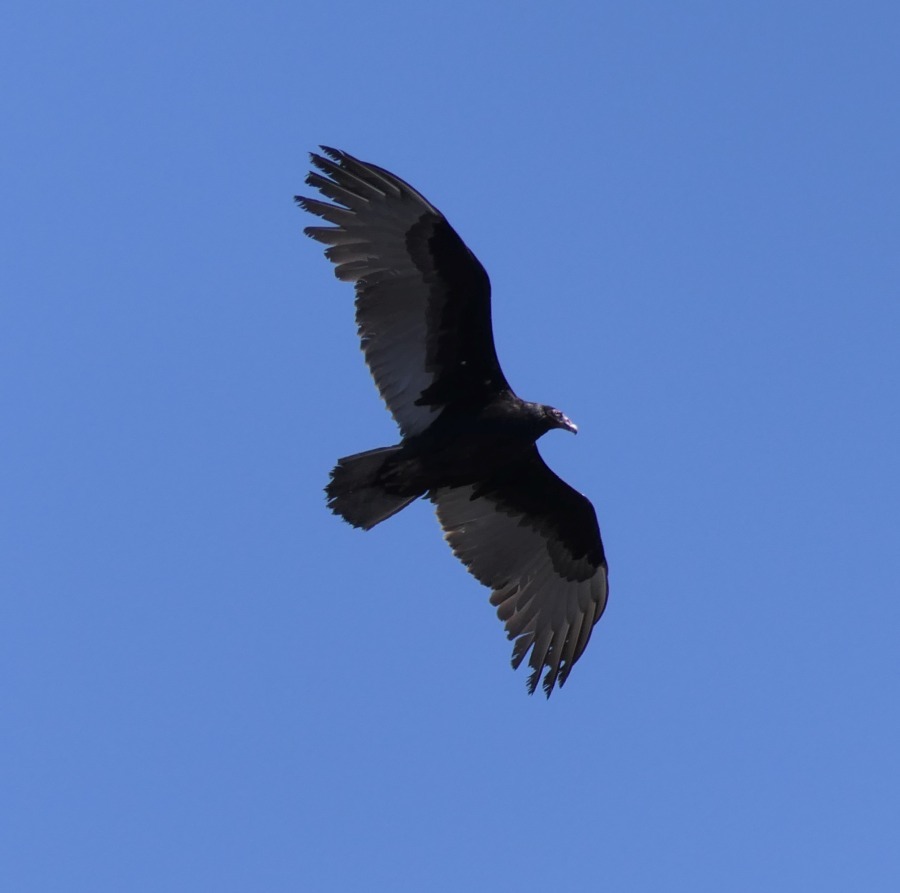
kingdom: Animalia
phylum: Chordata
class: Aves
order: Accipitriformes
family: Cathartidae
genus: Cathartes
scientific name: Cathartes aura
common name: Turkey vulture
